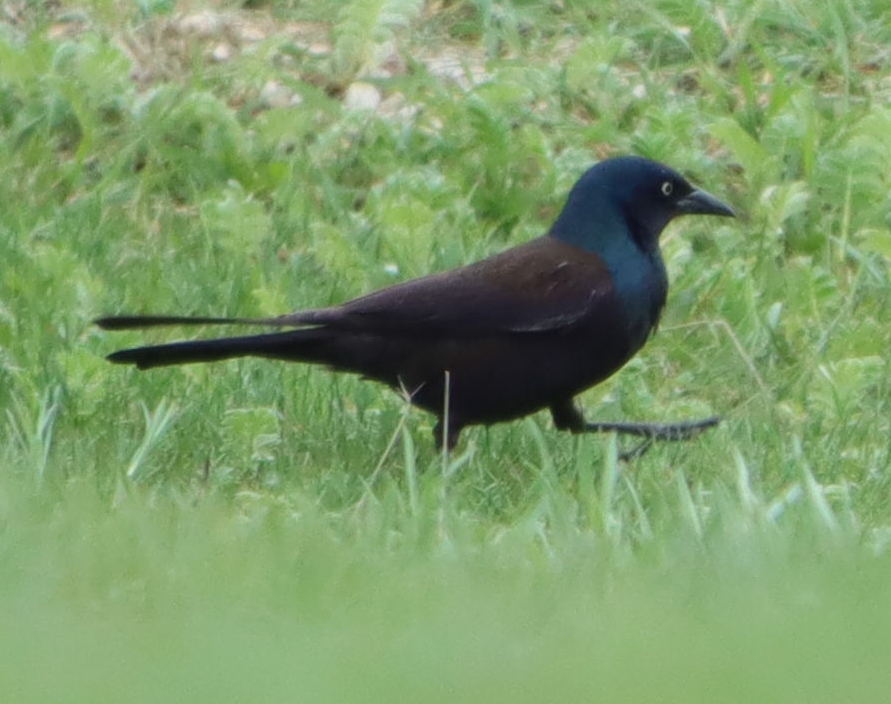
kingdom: Animalia
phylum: Chordata
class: Aves
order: Passeriformes
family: Icteridae
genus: Quiscalus
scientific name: Quiscalus quiscula
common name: Common grackle
